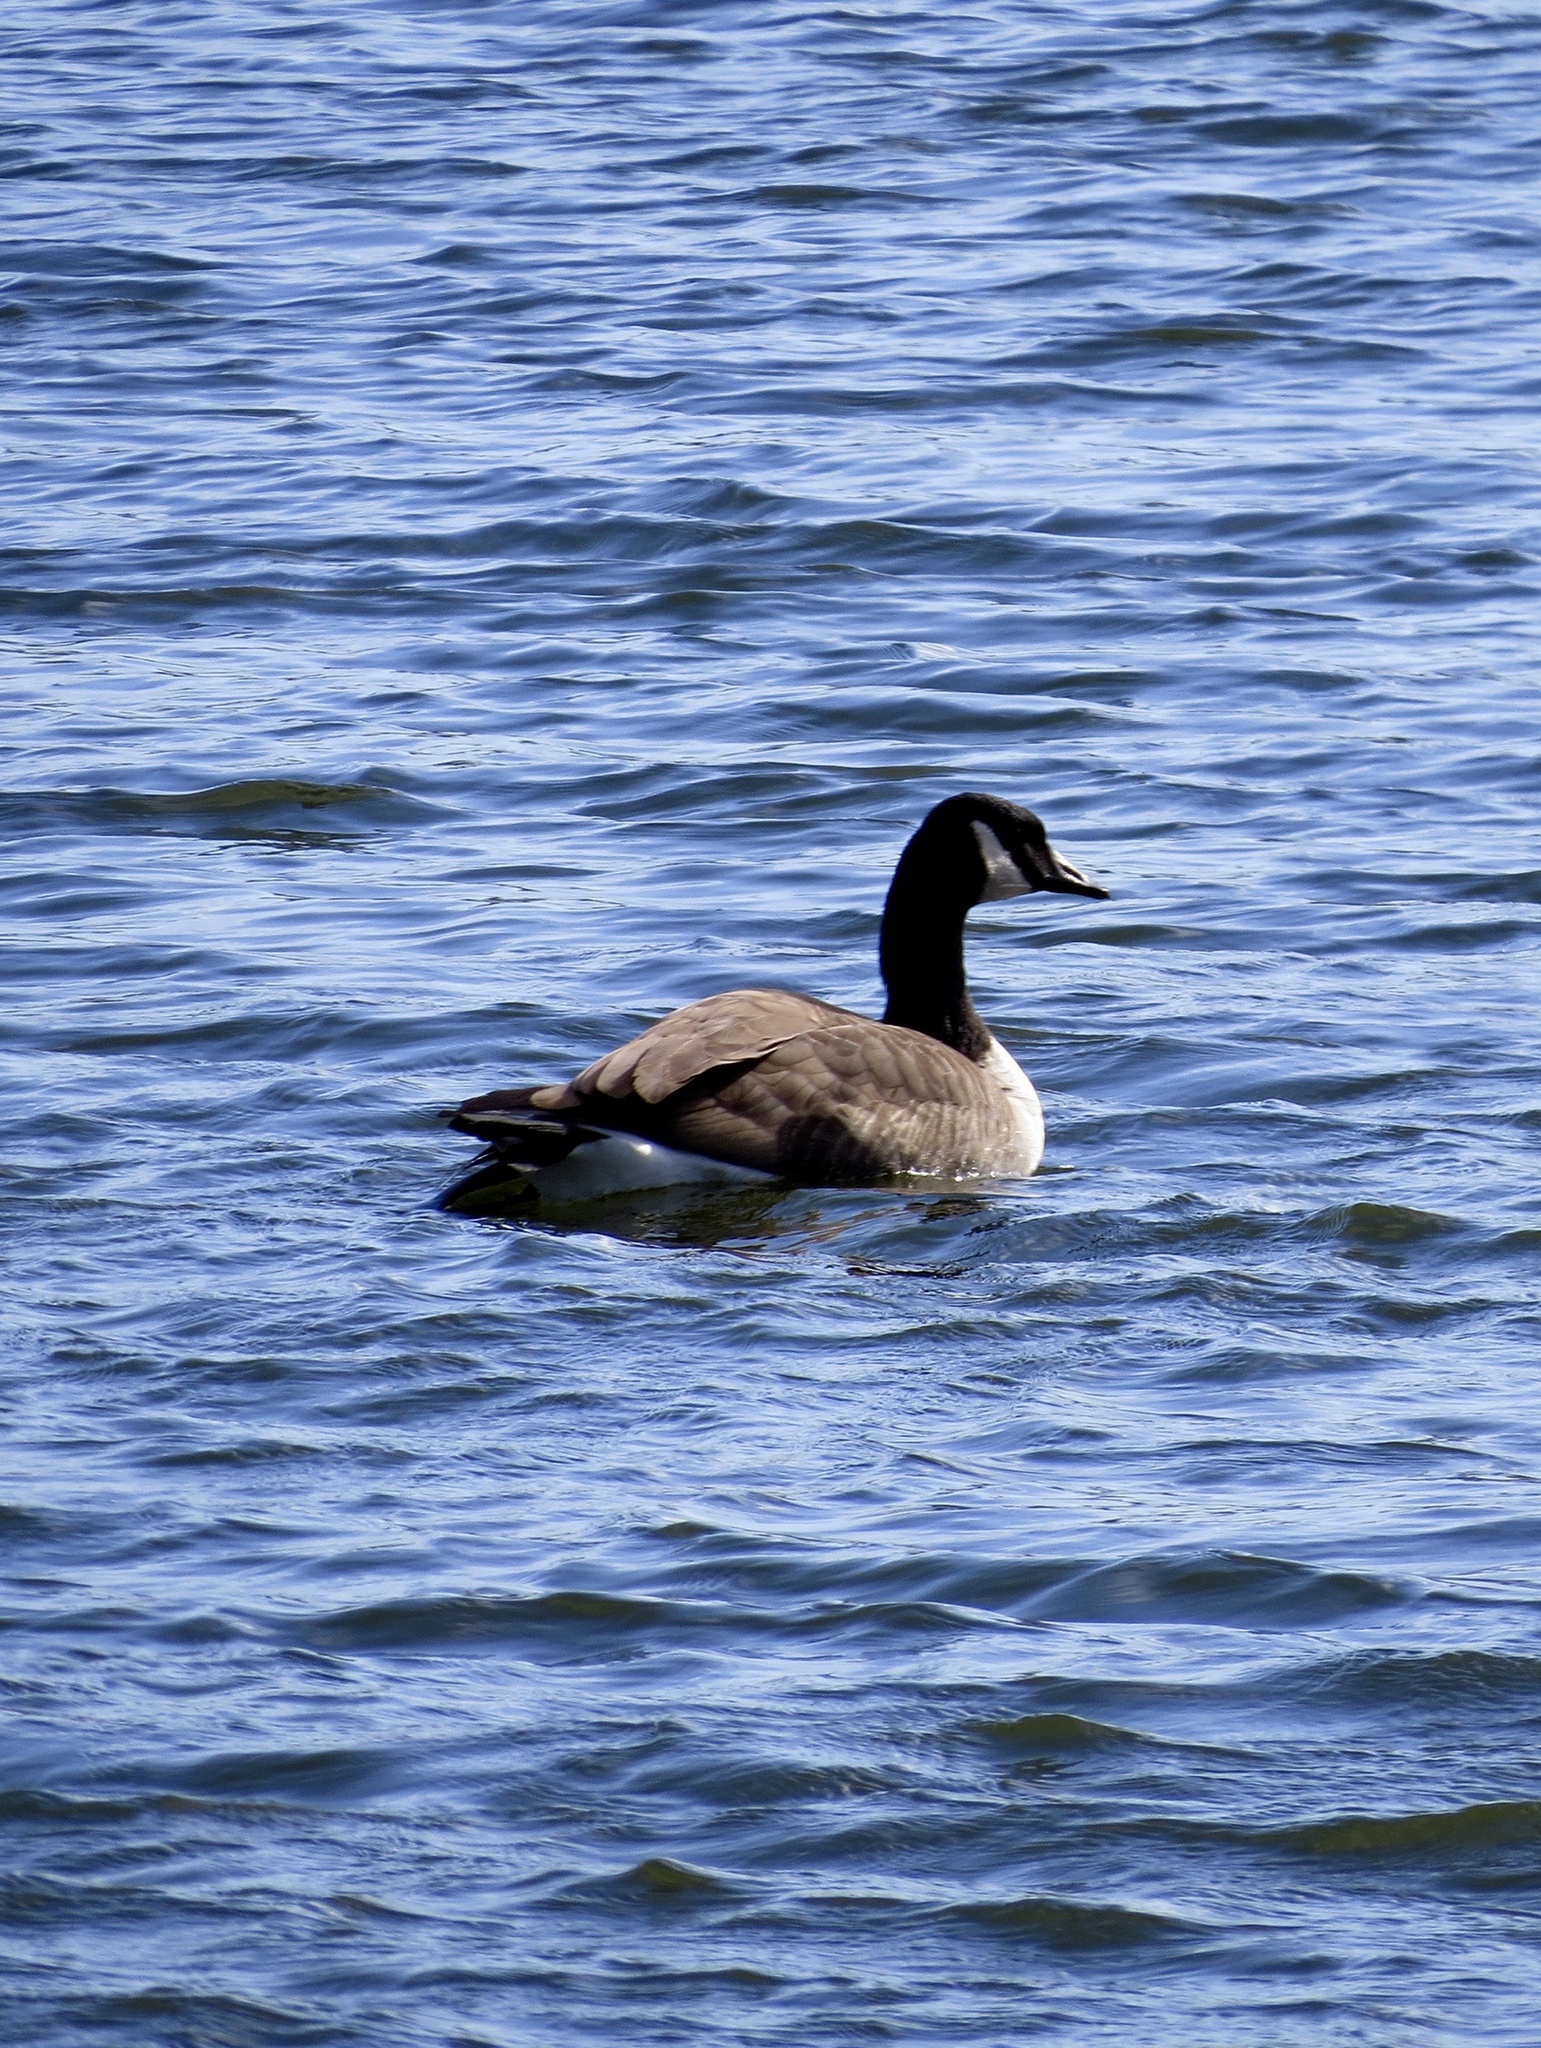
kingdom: Animalia
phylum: Chordata
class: Aves
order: Anseriformes
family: Anatidae
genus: Branta
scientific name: Branta canadensis
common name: Canada goose
